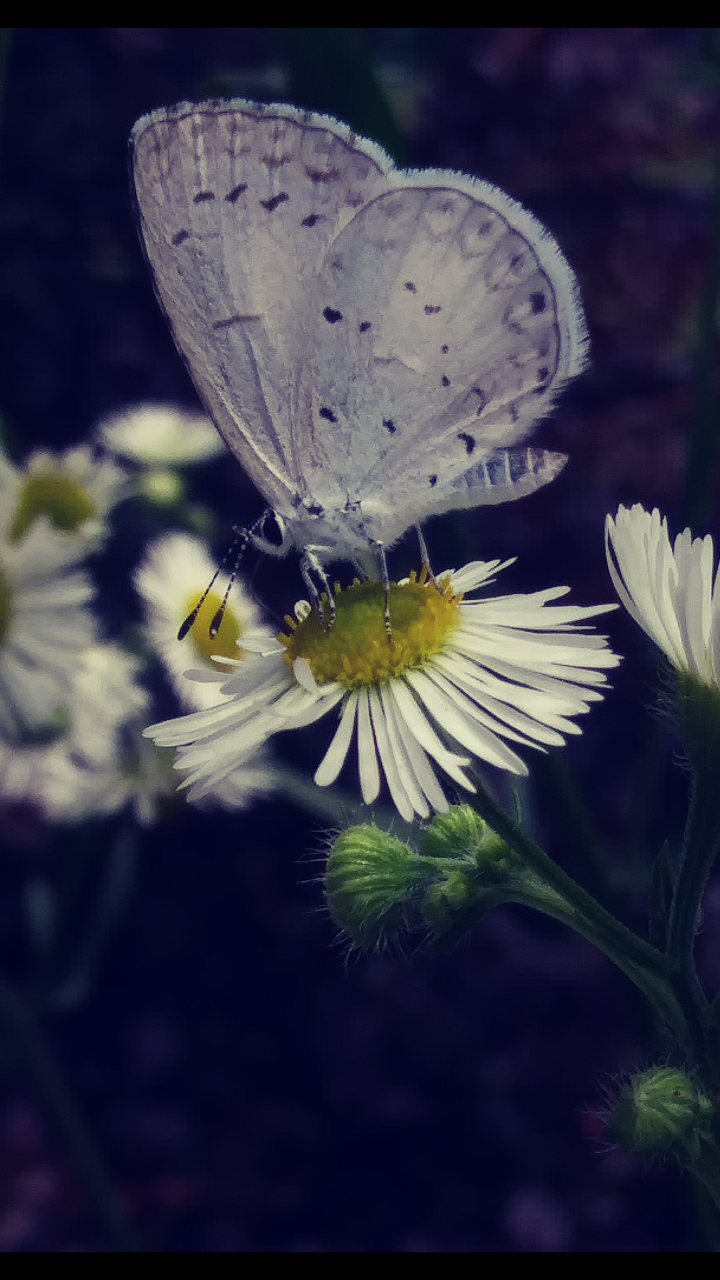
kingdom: Animalia
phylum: Arthropoda
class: Insecta
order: Lepidoptera
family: Lycaenidae
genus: Cyaniris
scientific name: Cyaniris neglecta
